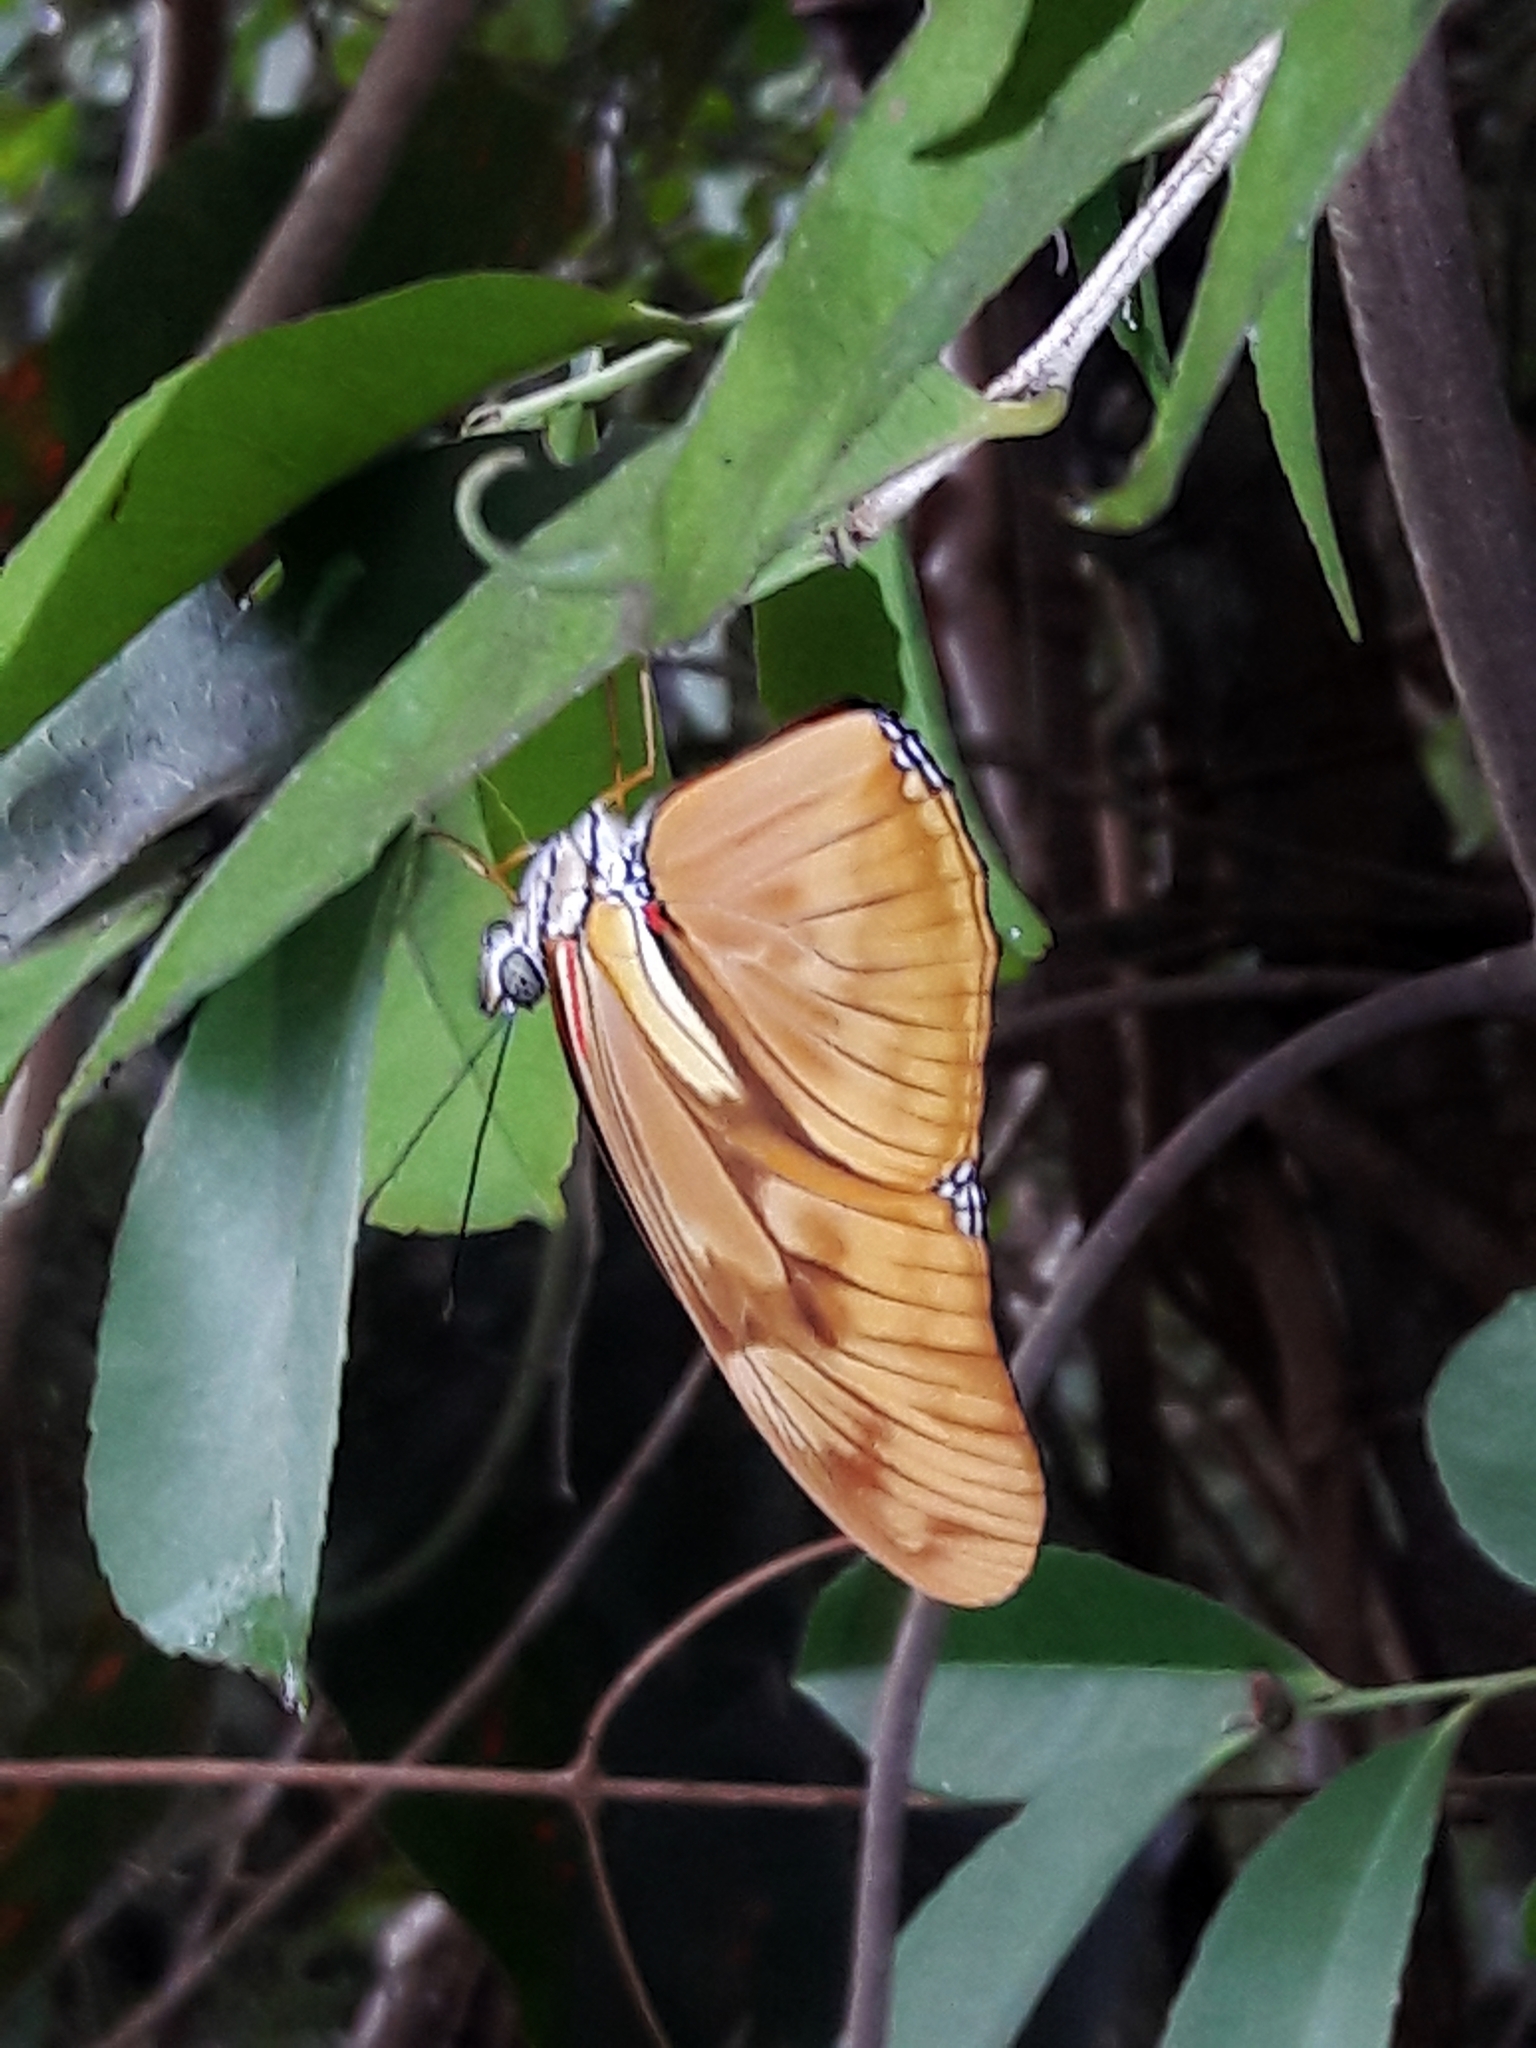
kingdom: Animalia
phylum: Arthropoda
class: Insecta
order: Lepidoptera
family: Nymphalidae
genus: Dryas
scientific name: Dryas iulia
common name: Flambeau
